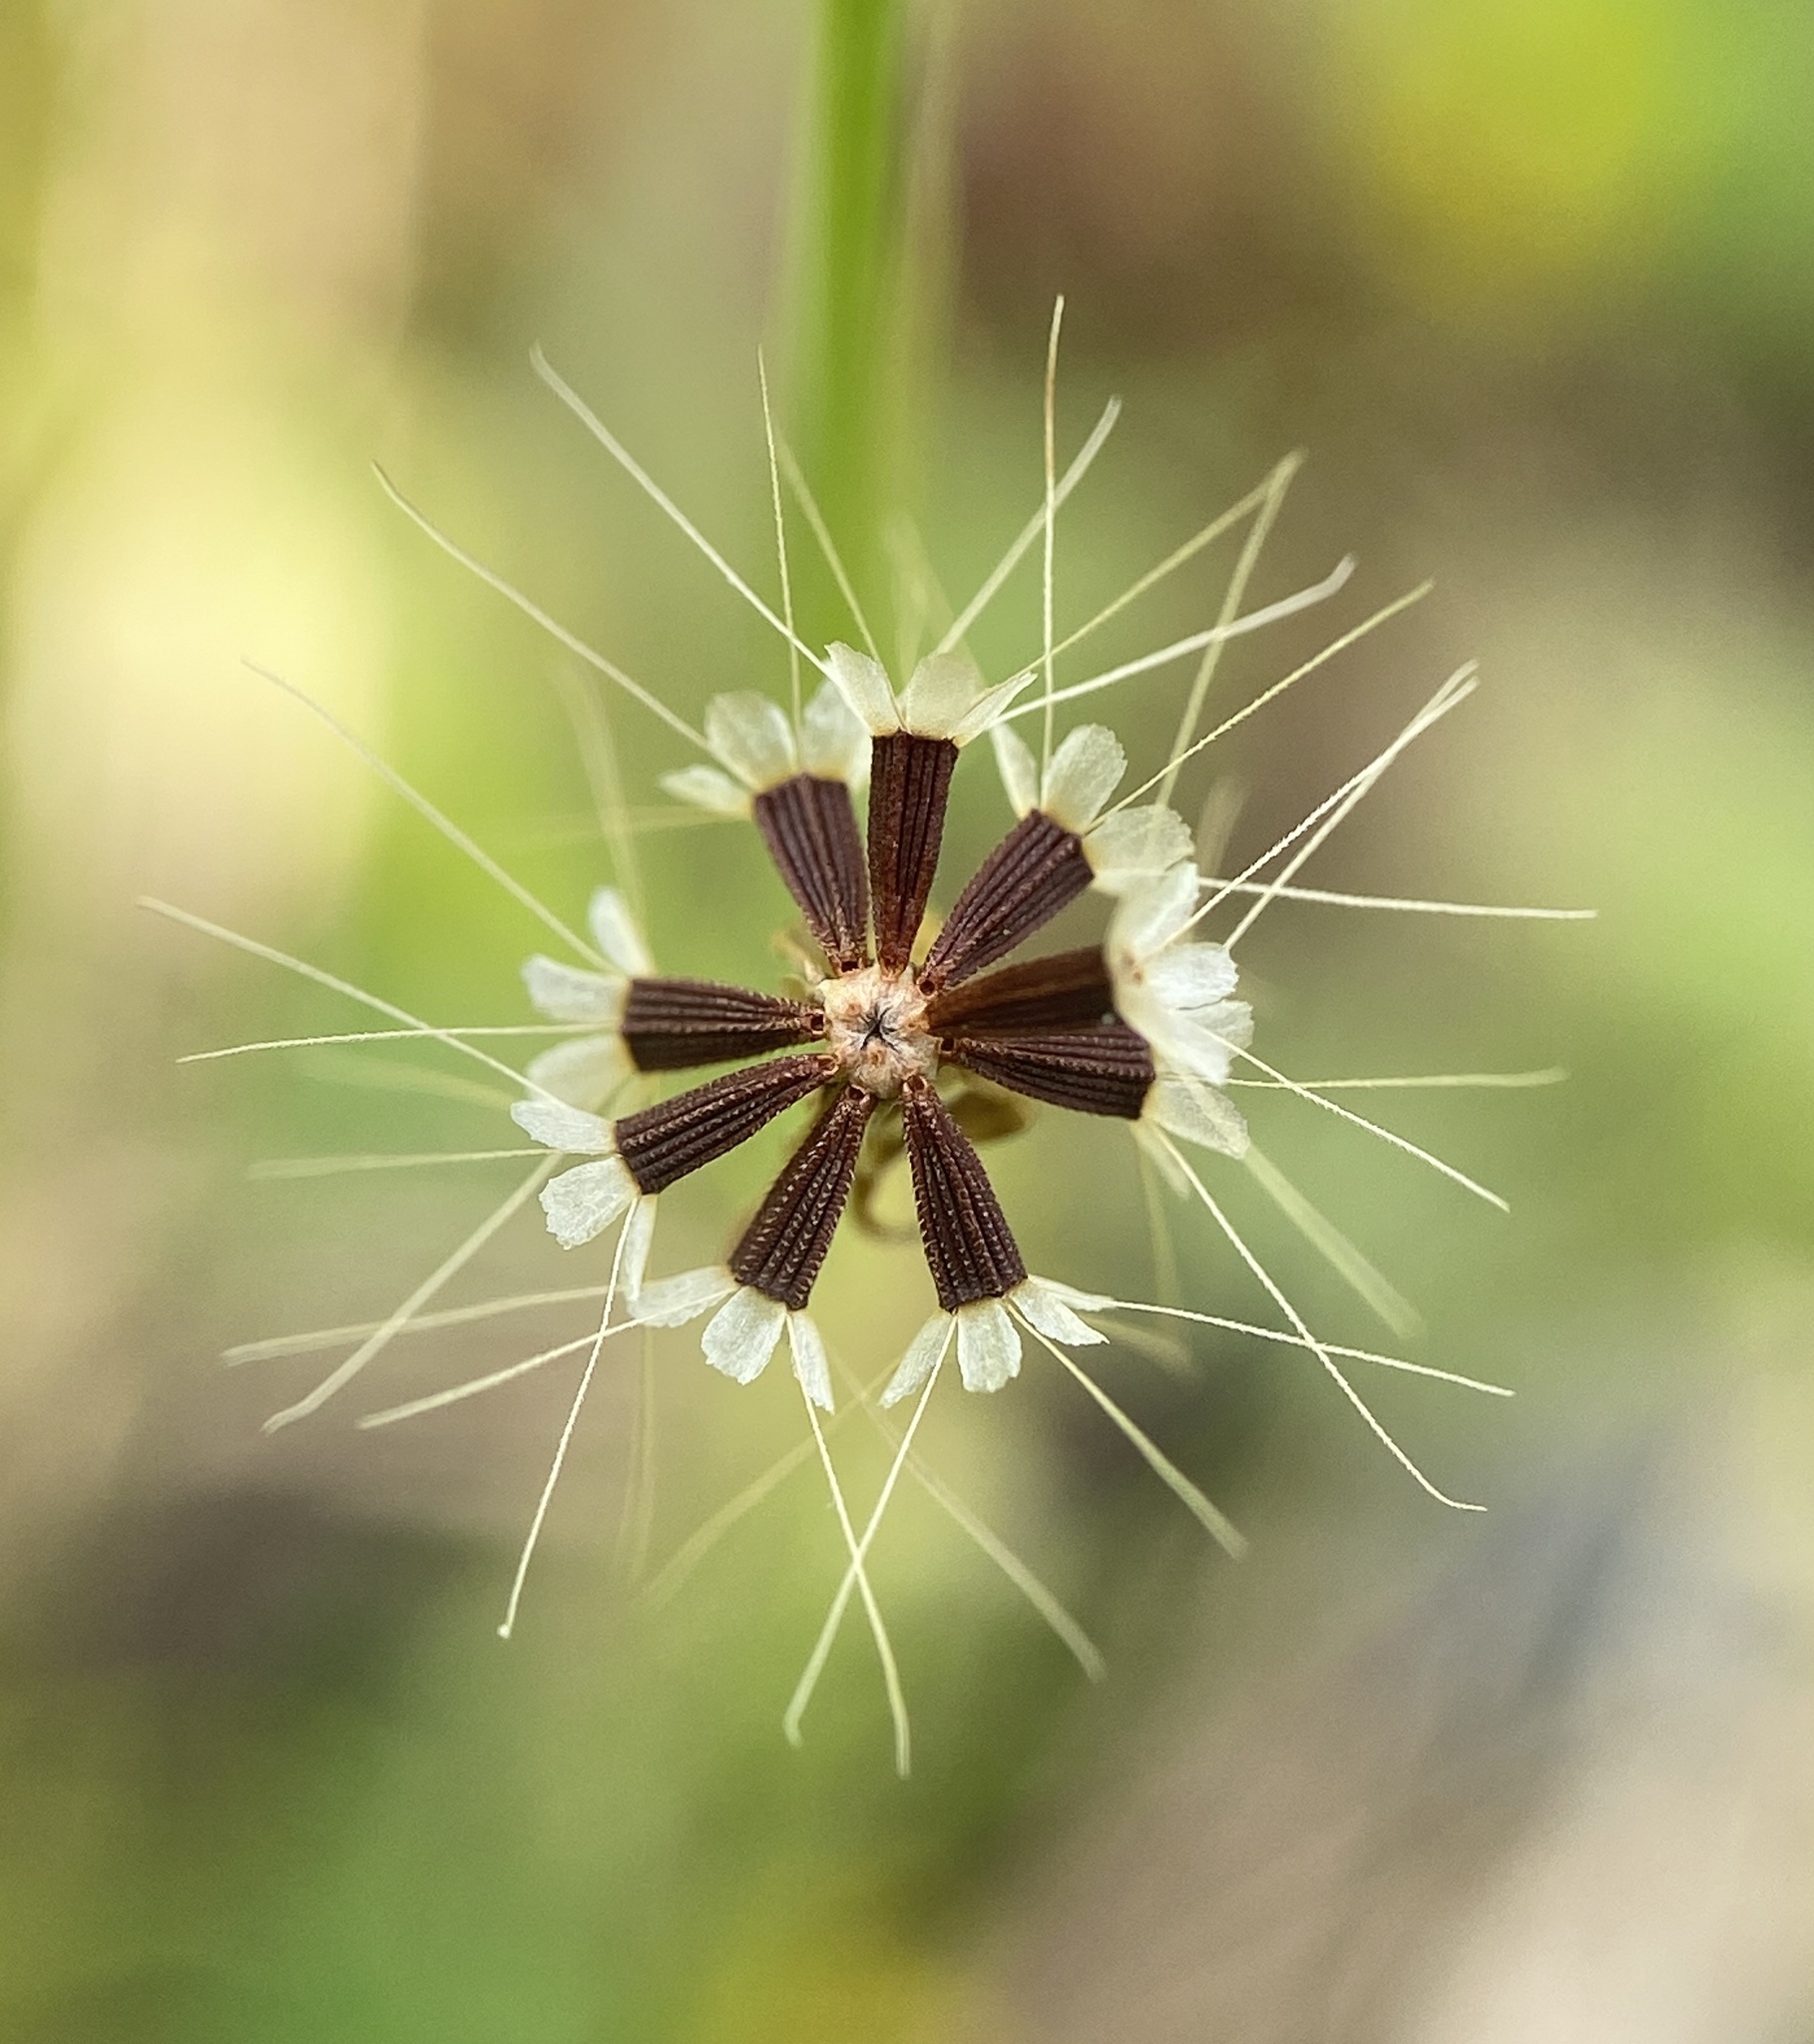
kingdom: Plantae
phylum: Tracheophyta
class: Magnoliopsida
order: Asterales
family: Asteraceae
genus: Krigia
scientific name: Krigia virginica
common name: Virginia dwarf-dandelion
